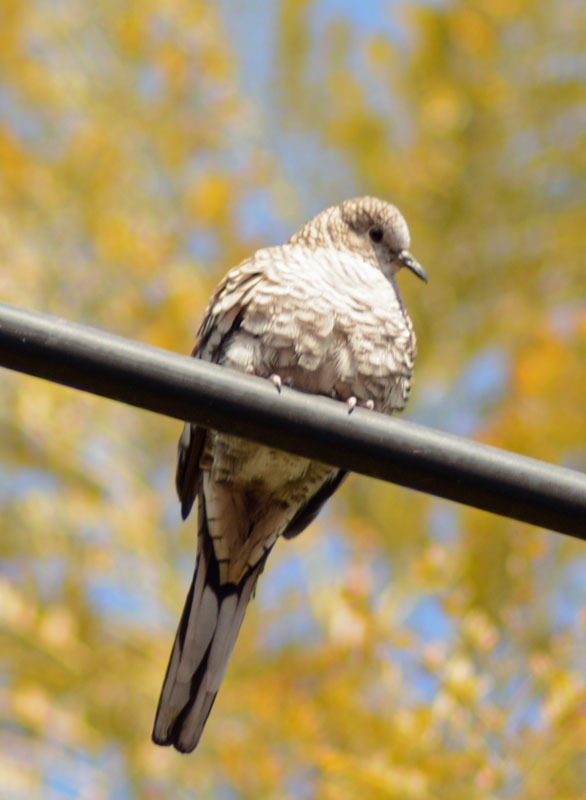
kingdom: Animalia
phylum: Chordata
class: Aves
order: Columbiformes
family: Columbidae
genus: Columbina
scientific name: Columbina inca
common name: Inca dove
